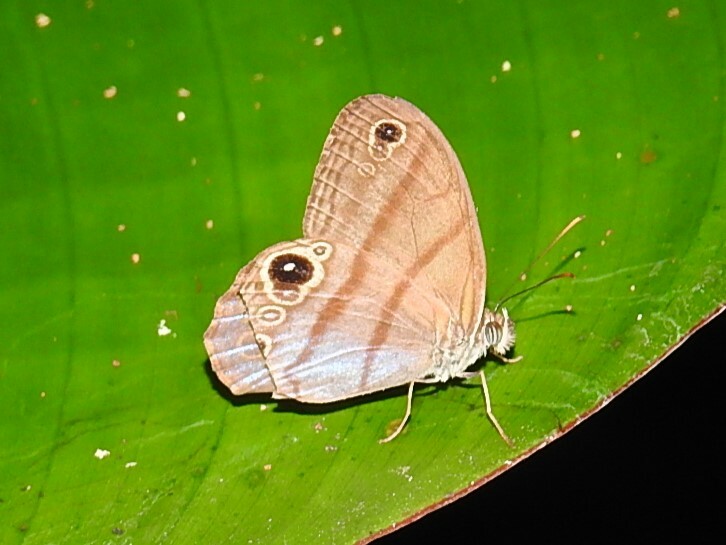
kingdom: Animalia
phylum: Arthropoda
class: Insecta
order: Lepidoptera
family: Nymphalidae
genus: Amiga
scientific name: Amiga arnaca
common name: Blue-topped satyr
